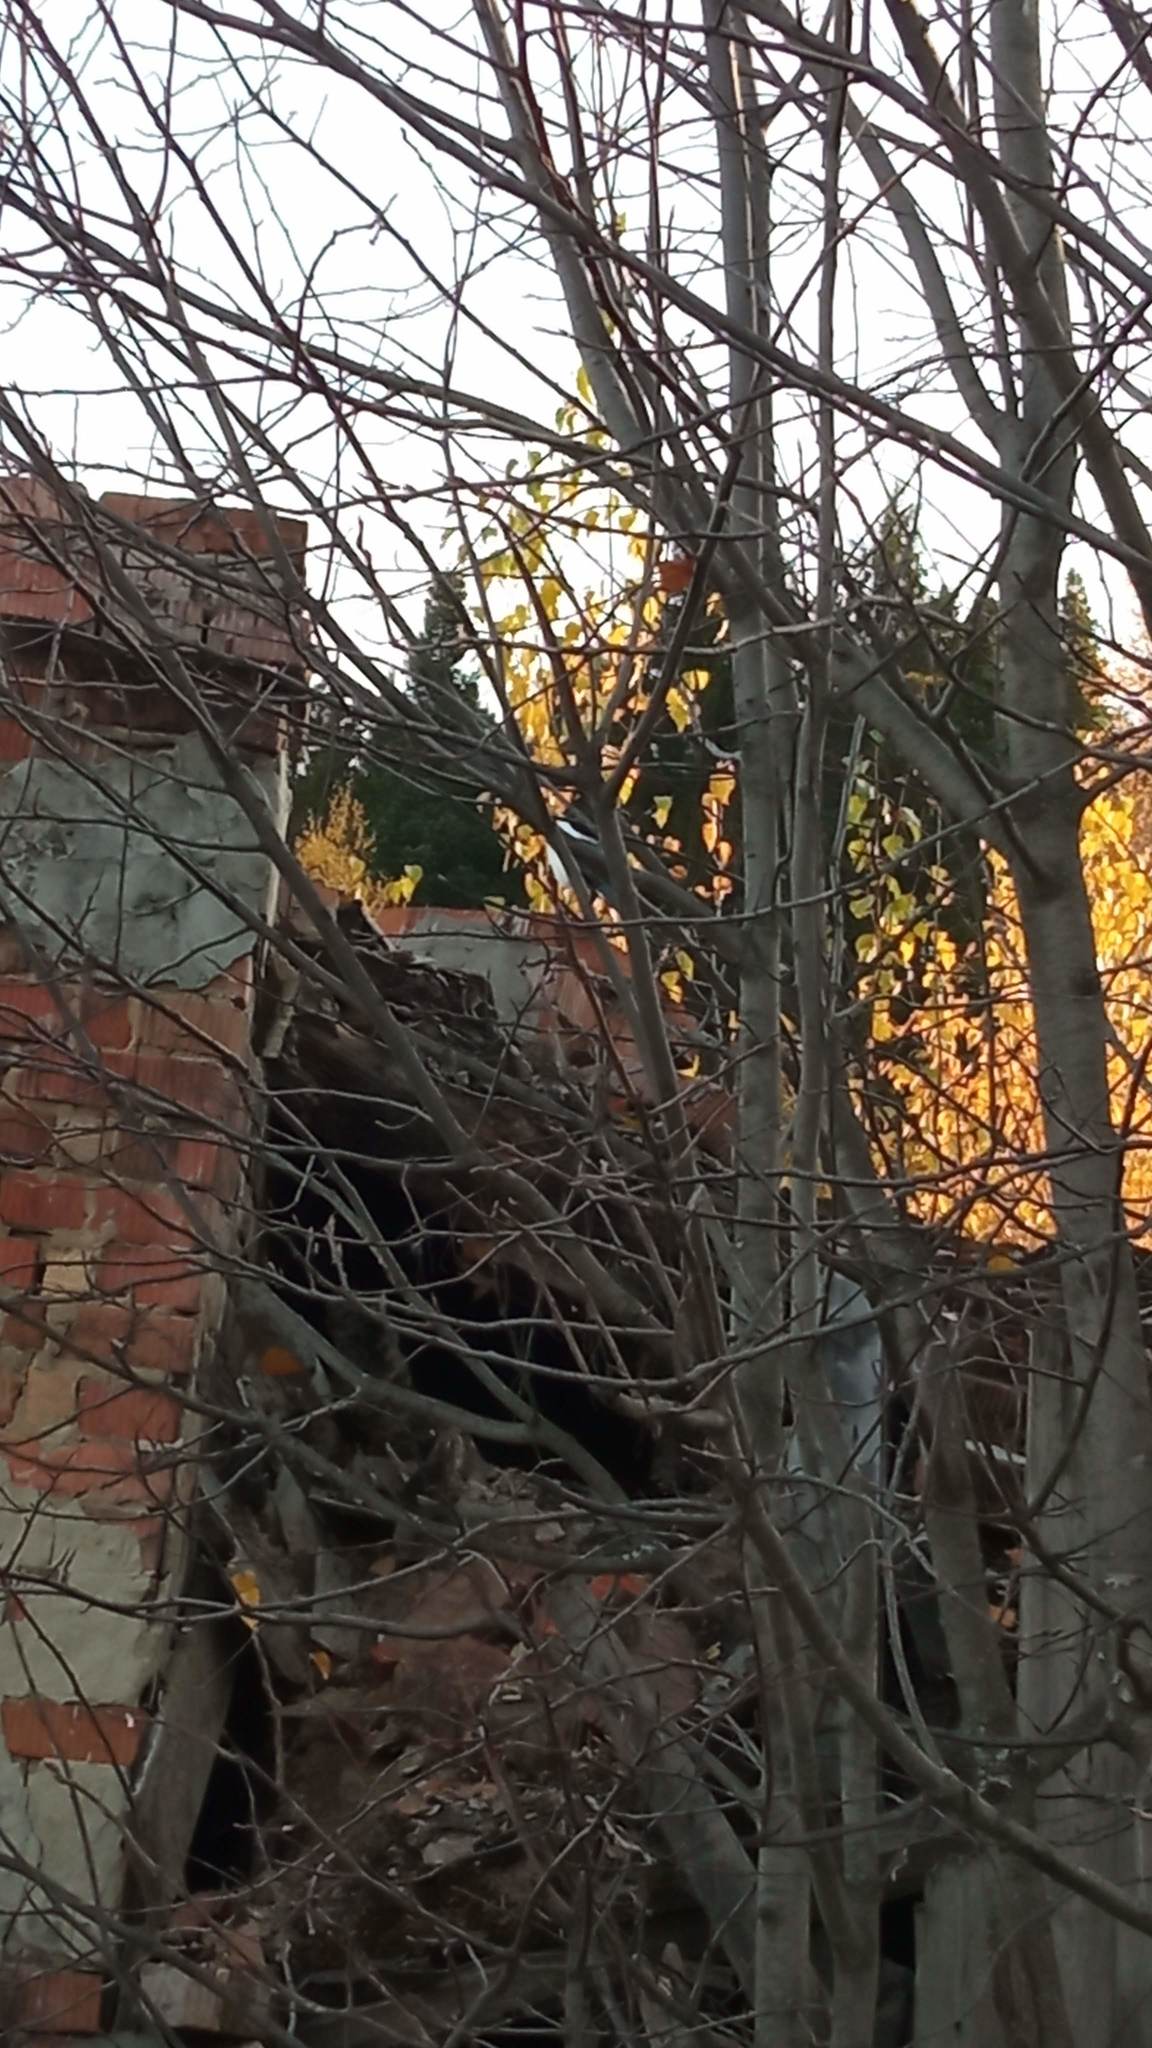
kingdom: Animalia
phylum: Chordata
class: Aves
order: Passeriformes
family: Corvidae
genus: Pica
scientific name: Pica pica
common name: Eurasian magpie
